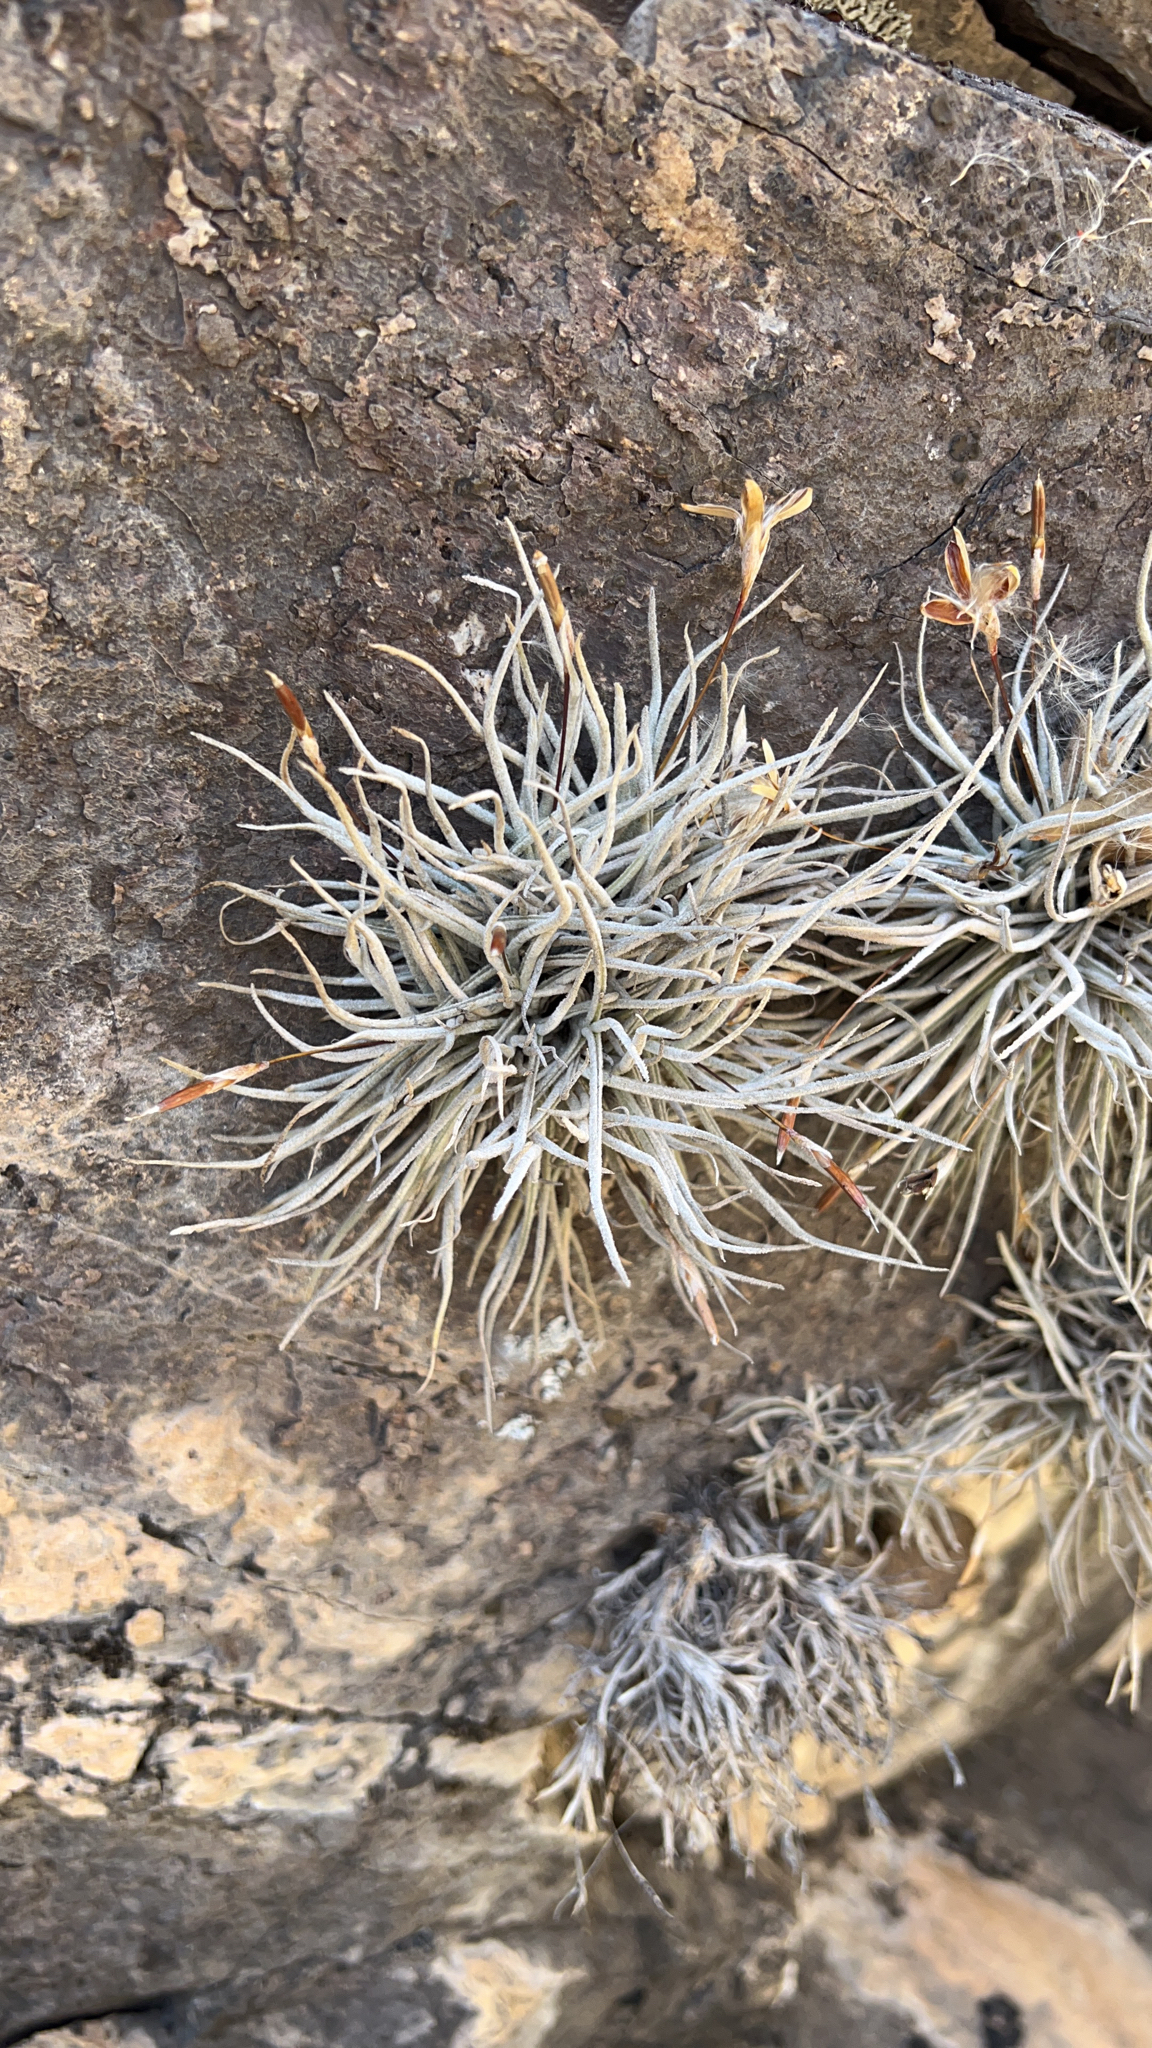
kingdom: Plantae
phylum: Tracheophyta
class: Liliopsida
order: Poales
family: Bromeliaceae
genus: Tillandsia
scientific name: Tillandsia recurvata
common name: Small ballmoss
